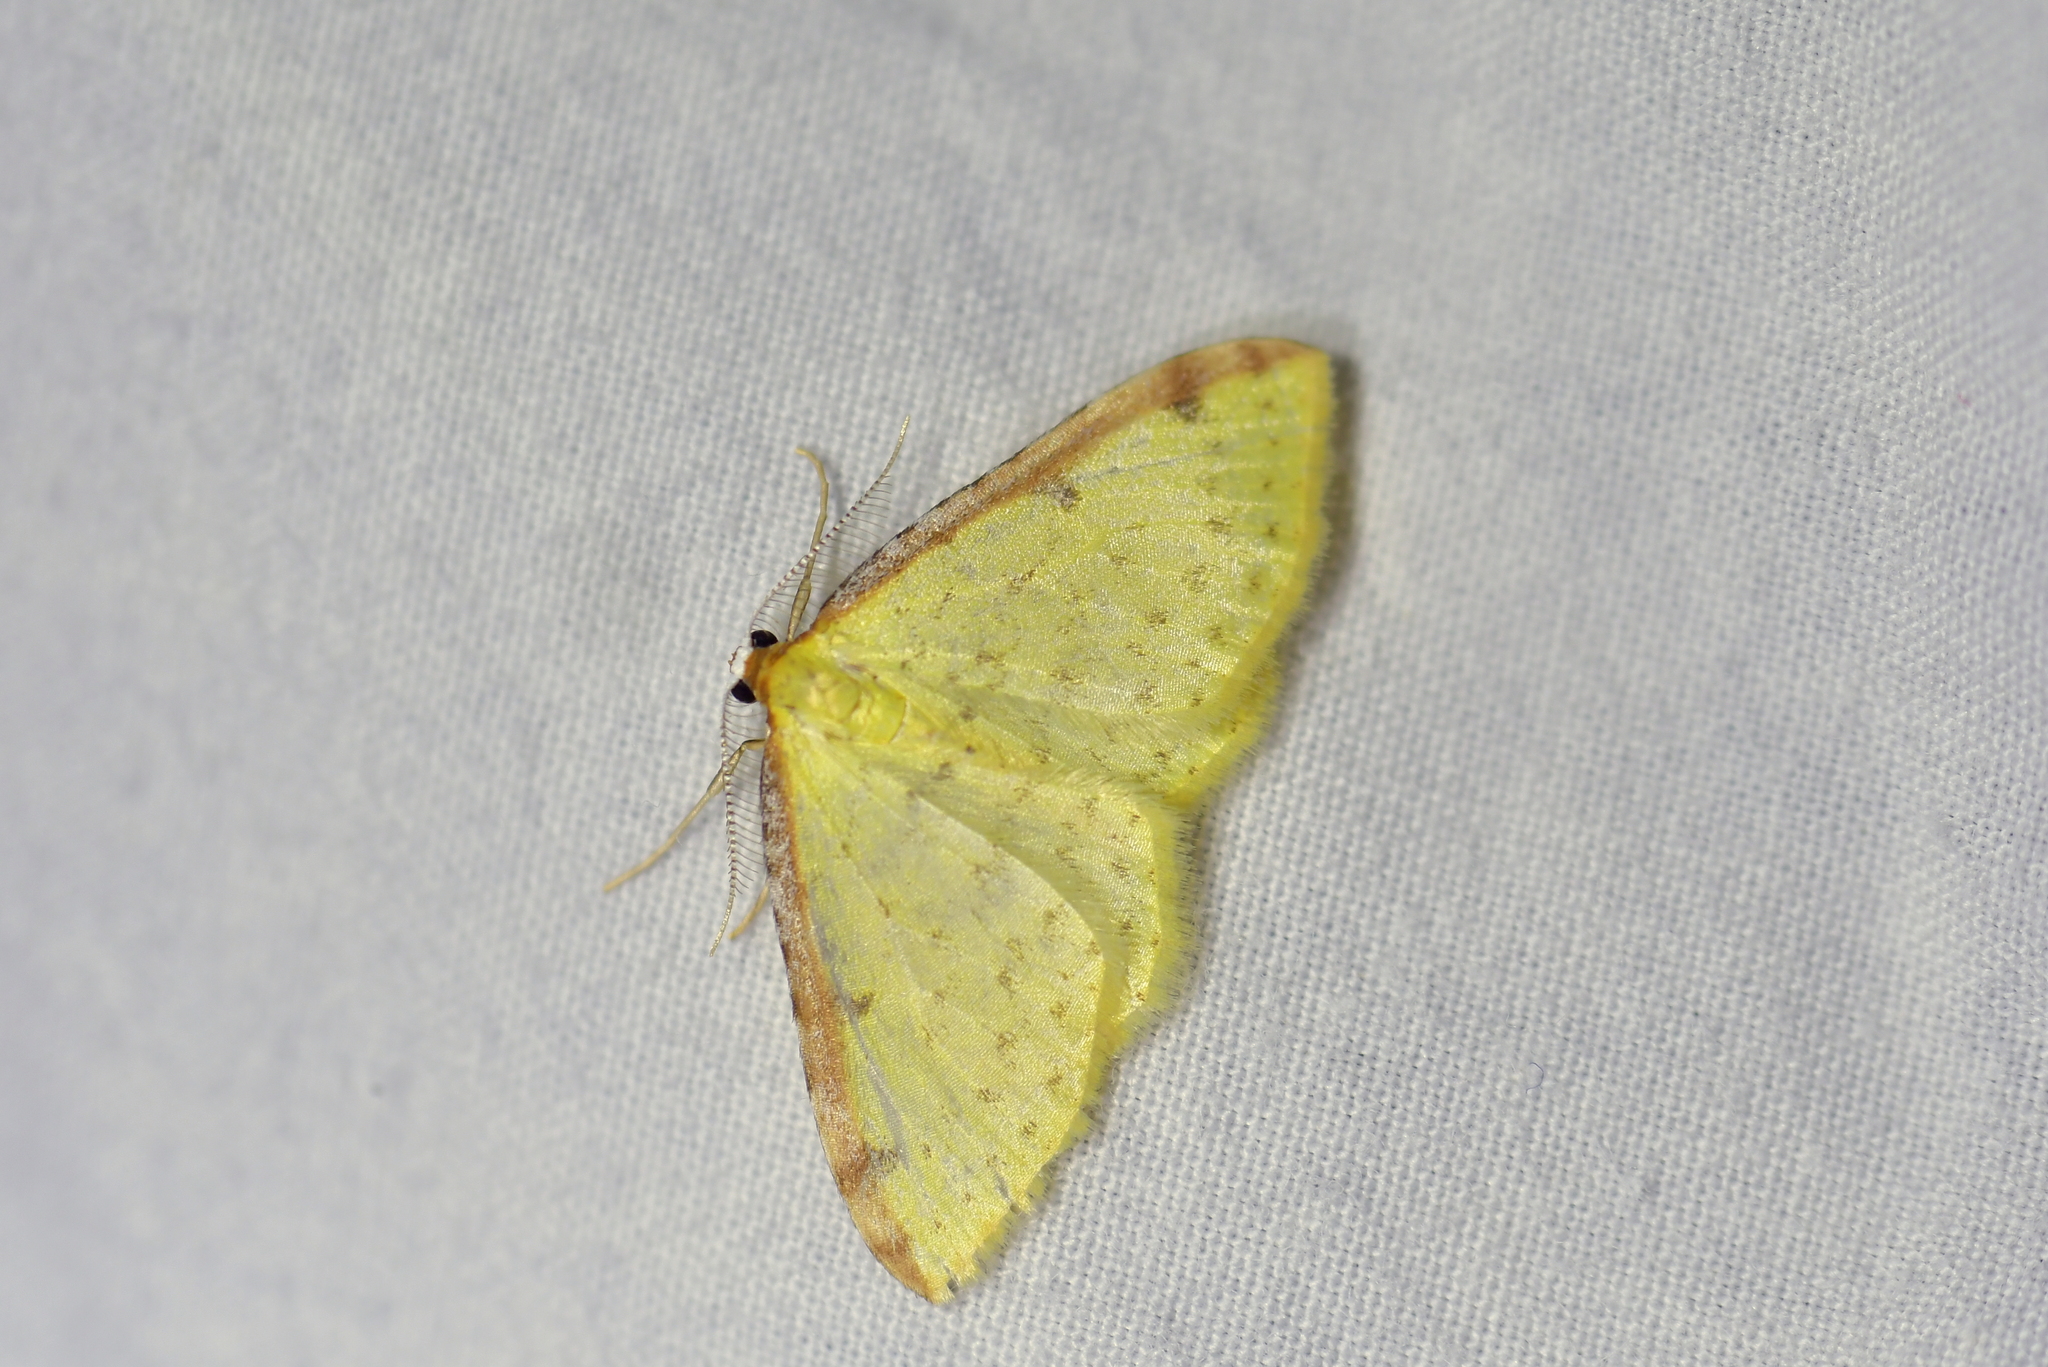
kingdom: Animalia
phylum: Arthropoda
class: Insecta
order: Lepidoptera
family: Geometridae
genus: Epiphryne
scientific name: Epiphryne undosata
